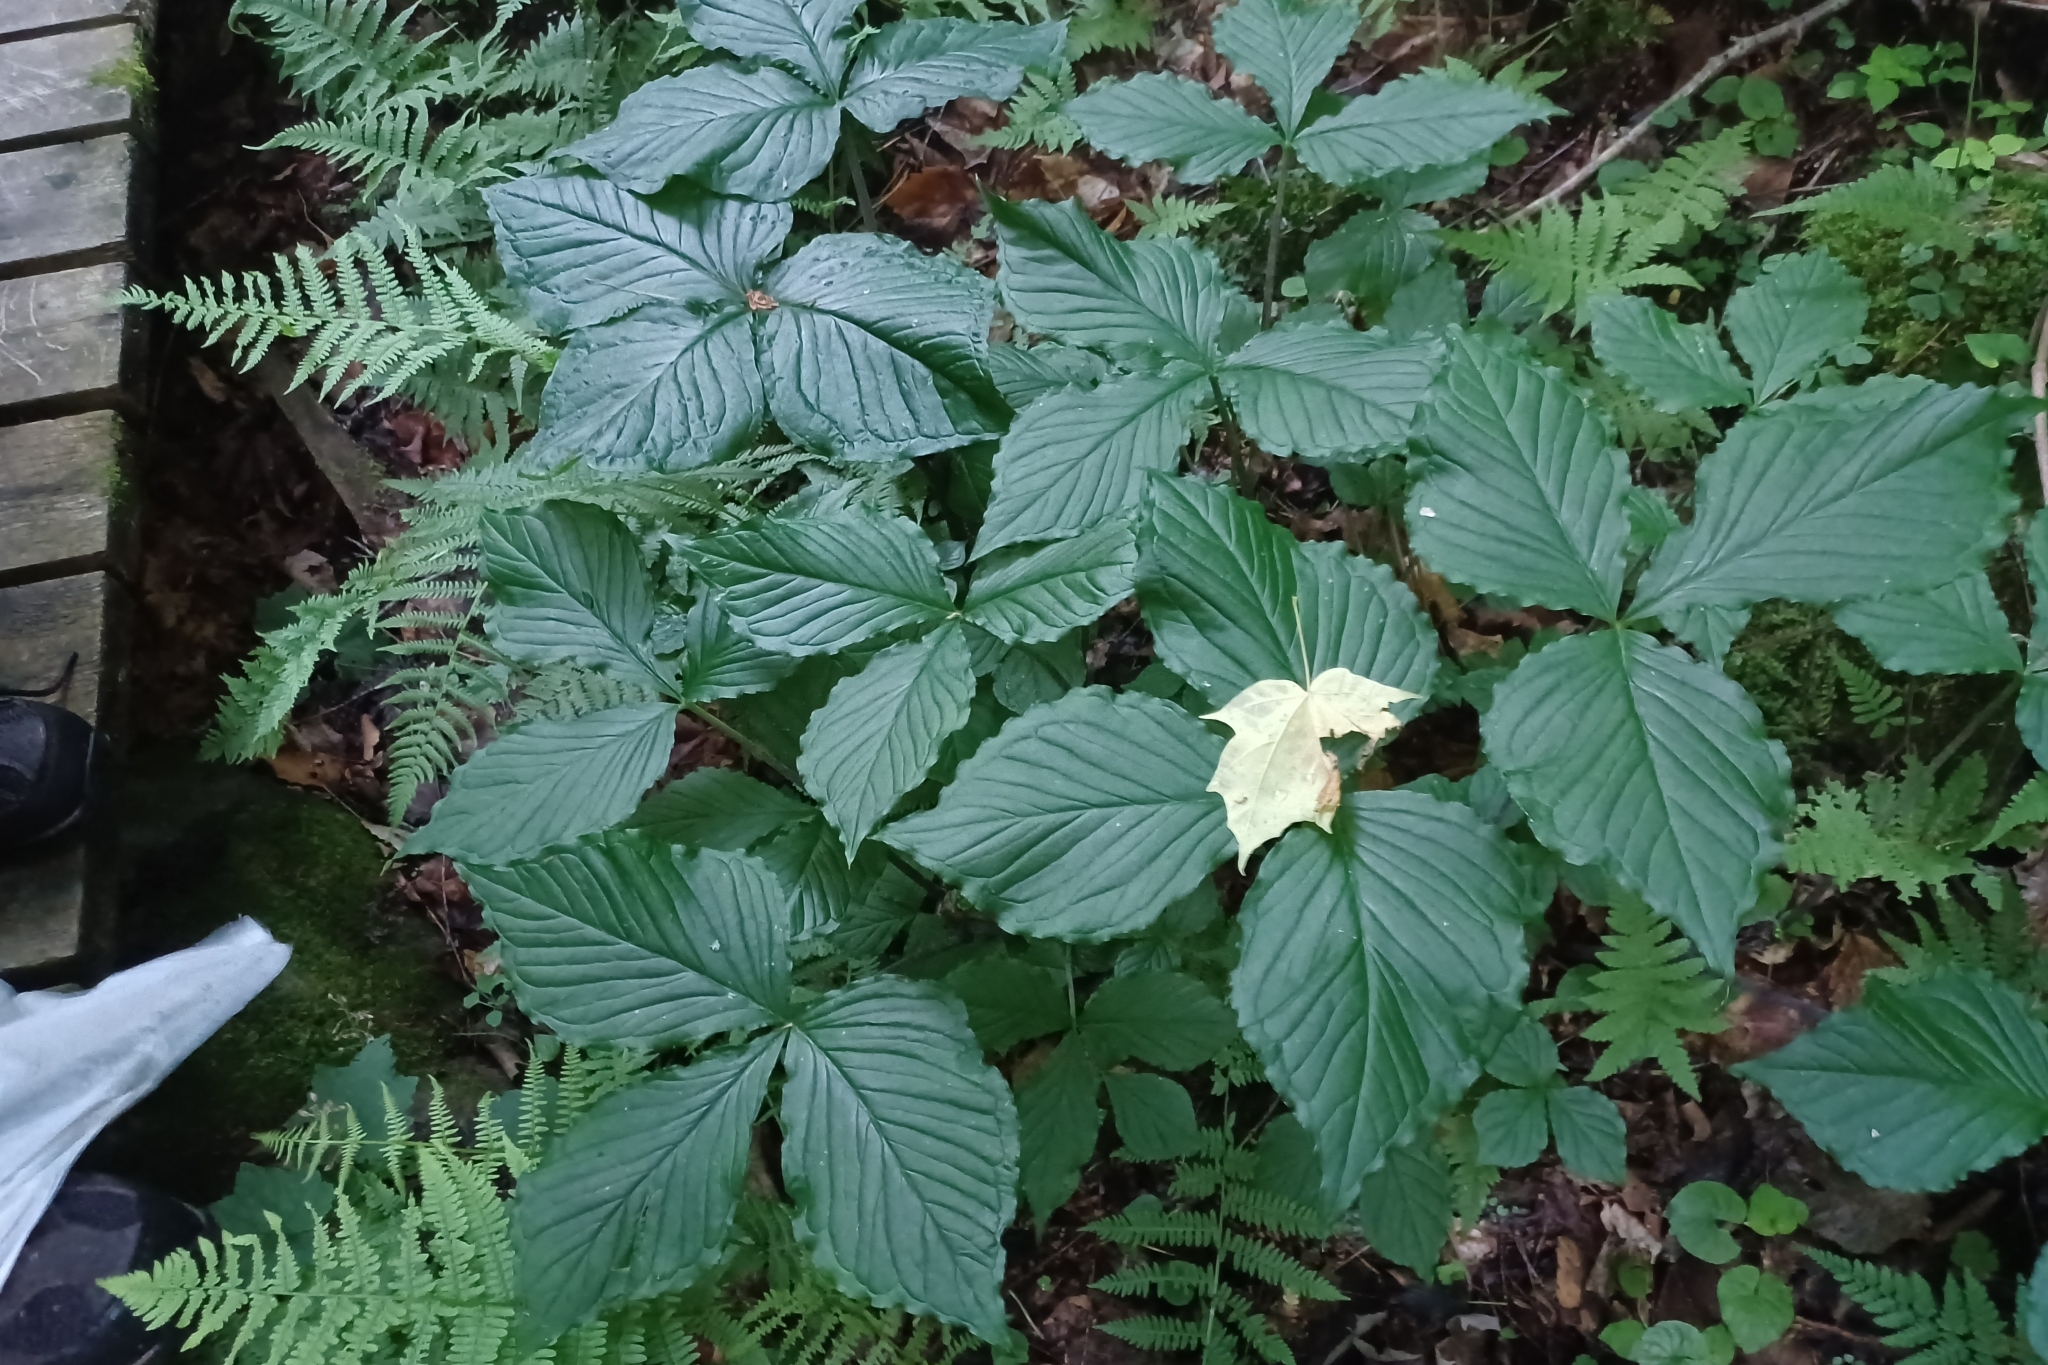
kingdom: Plantae
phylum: Tracheophyta
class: Liliopsida
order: Alismatales
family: Araceae
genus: Arisaema
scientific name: Arisaema triphyllum
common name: Jack-in-the-pulpit
